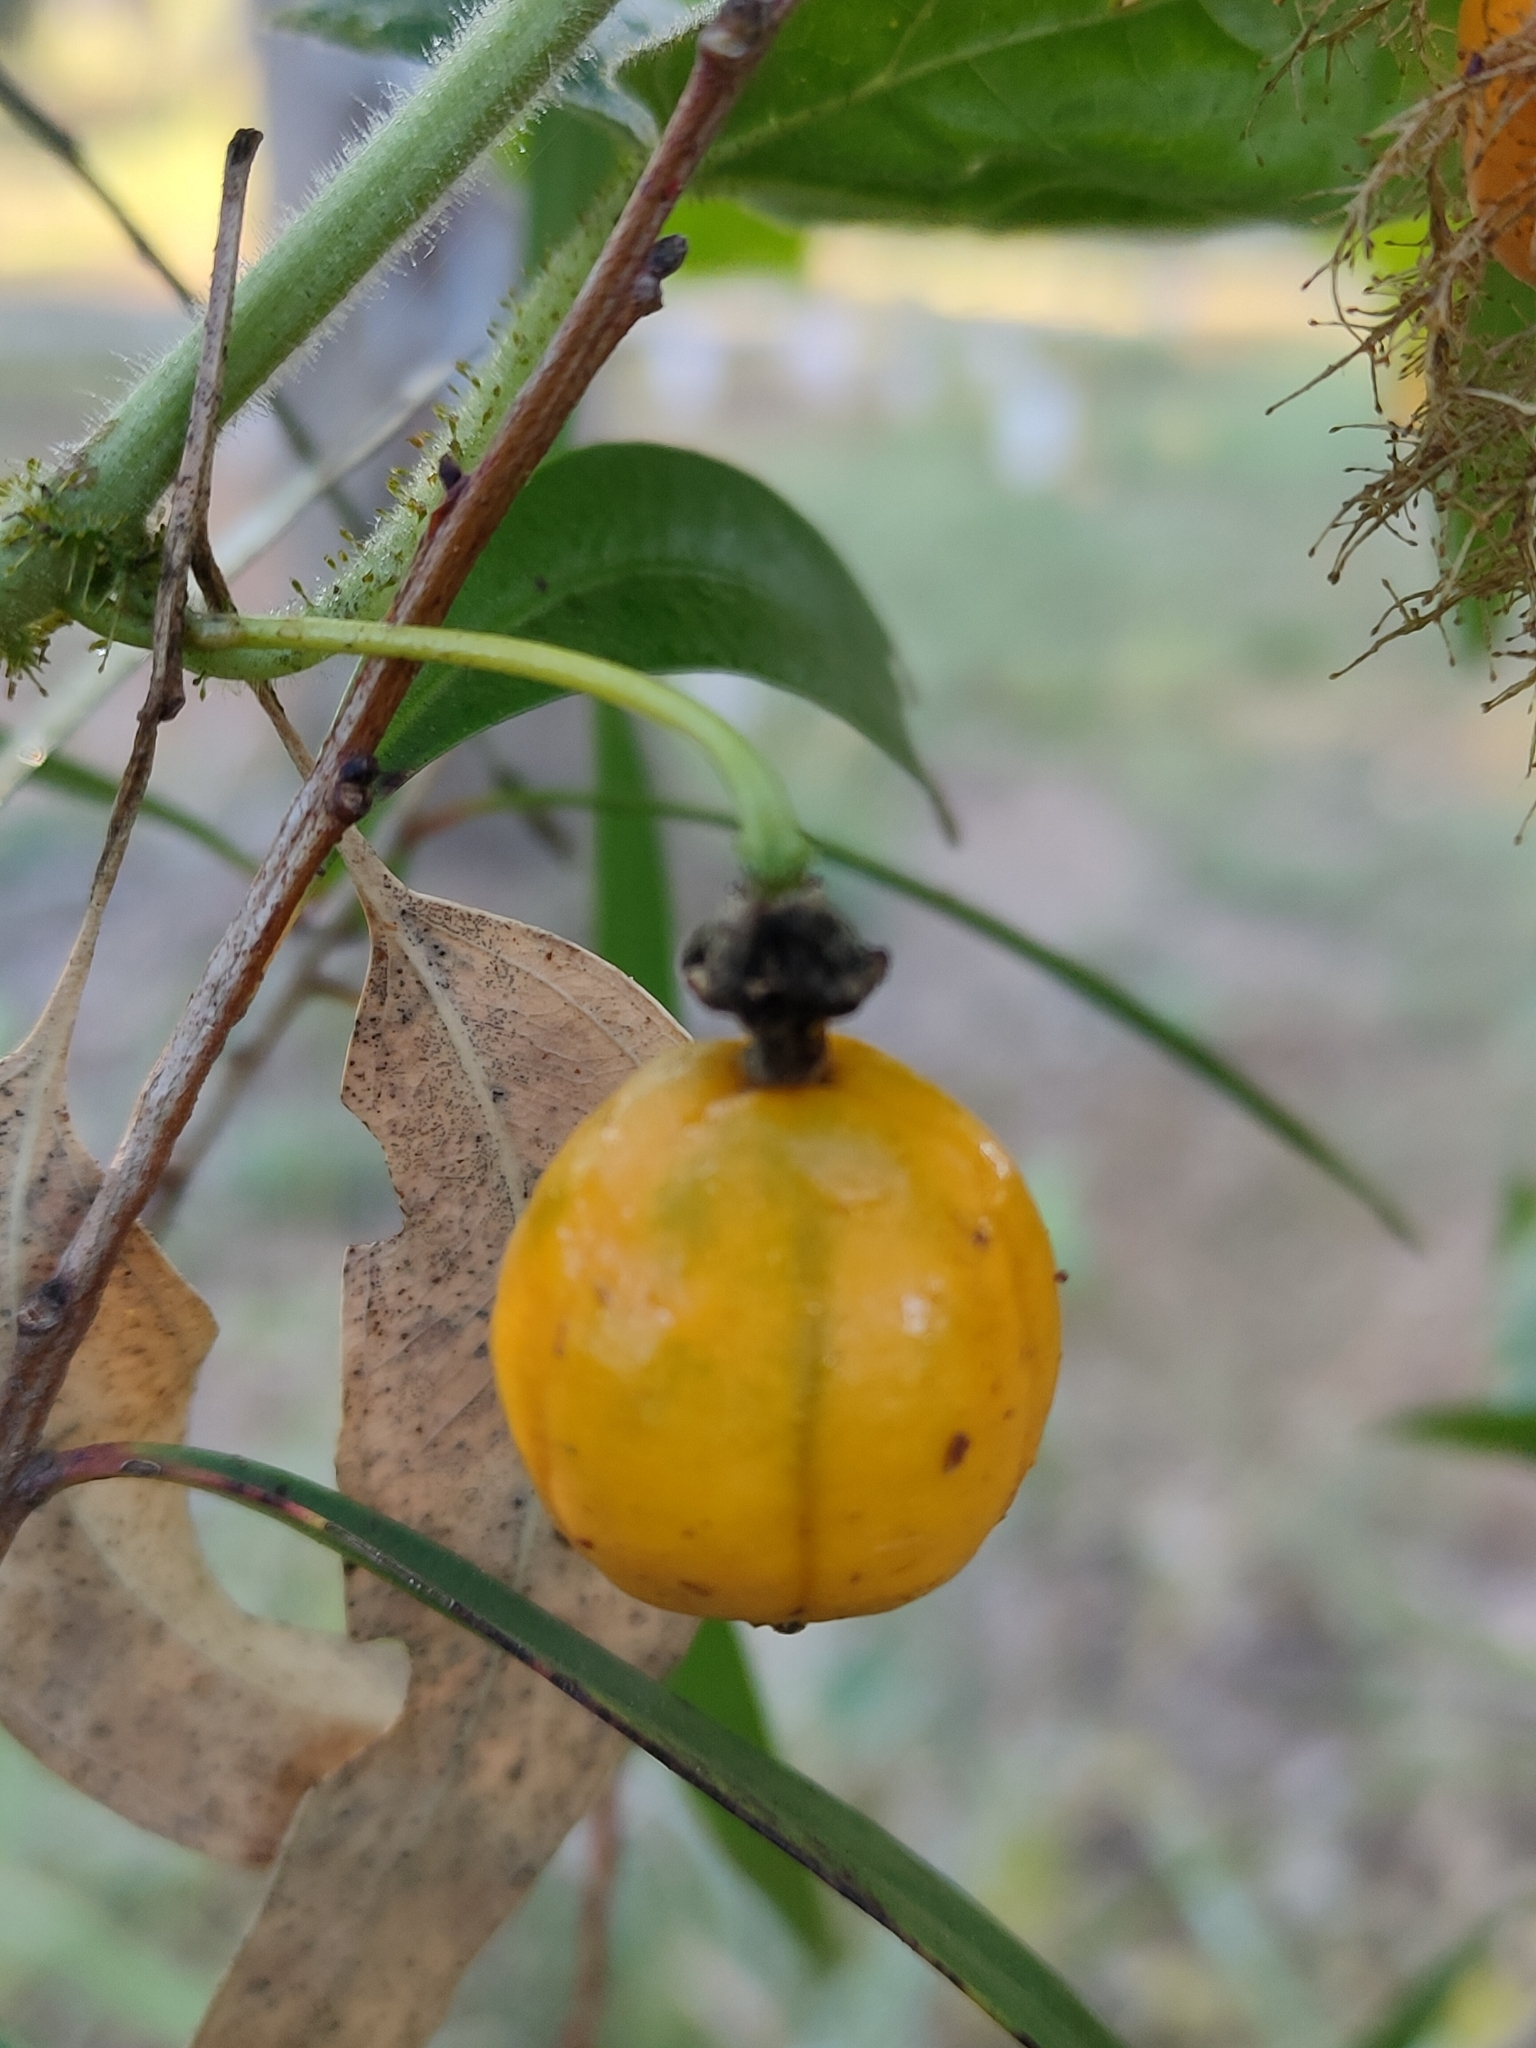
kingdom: Plantae
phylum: Tracheophyta
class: Magnoliopsida
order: Malpighiales
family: Passifloraceae
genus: Passiflora
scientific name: Passiflora foetida
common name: Fetid passionflower
